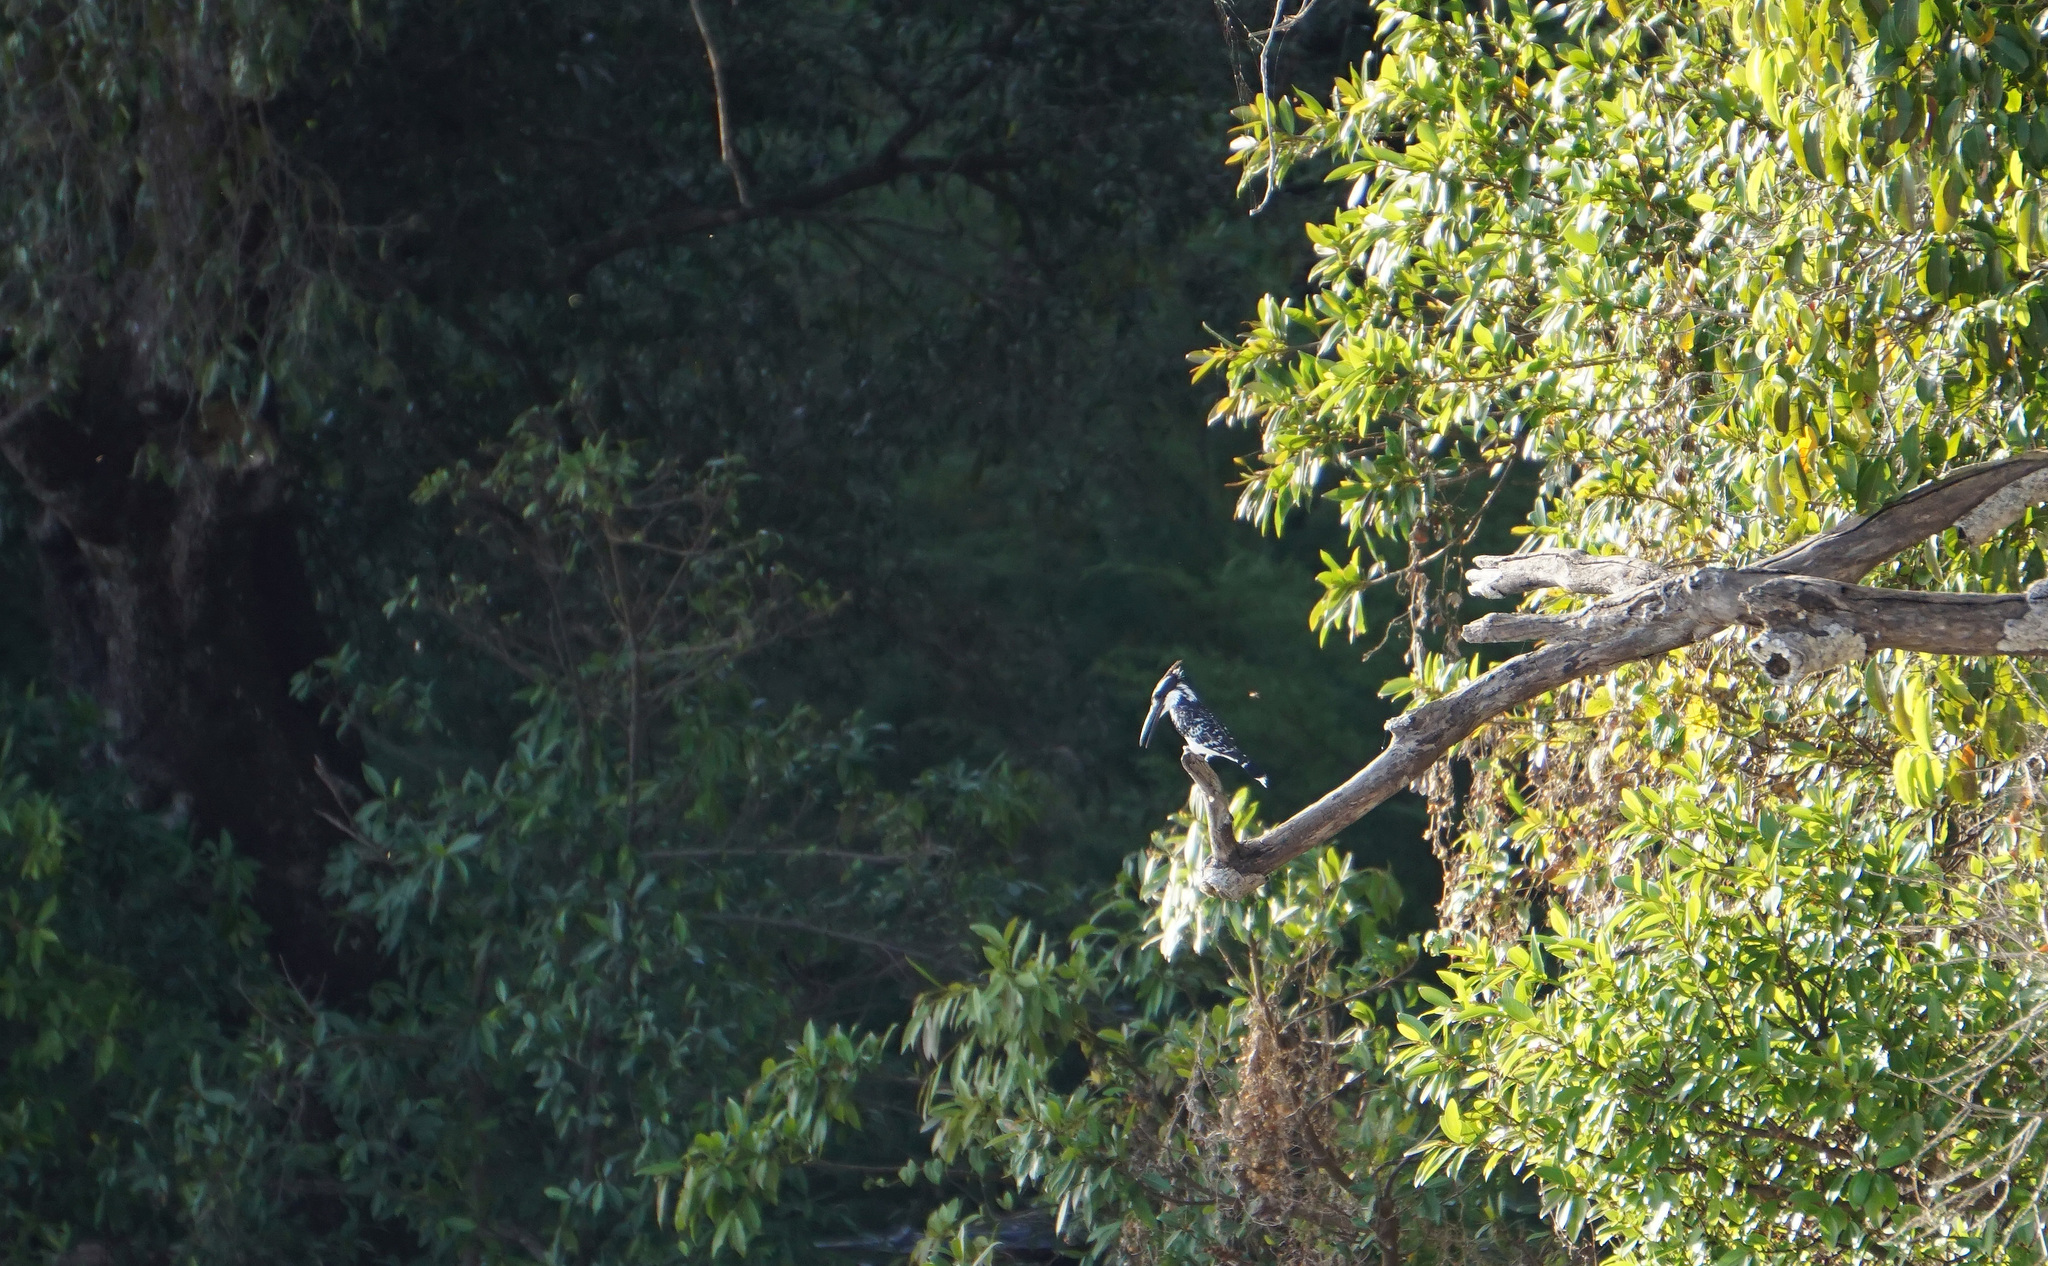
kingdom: Animalia
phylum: Chordata
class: Aves
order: Coraciiformes
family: Alcedinidae
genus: Ceryle
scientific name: Ceryle rudis
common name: Pied kingfisher
